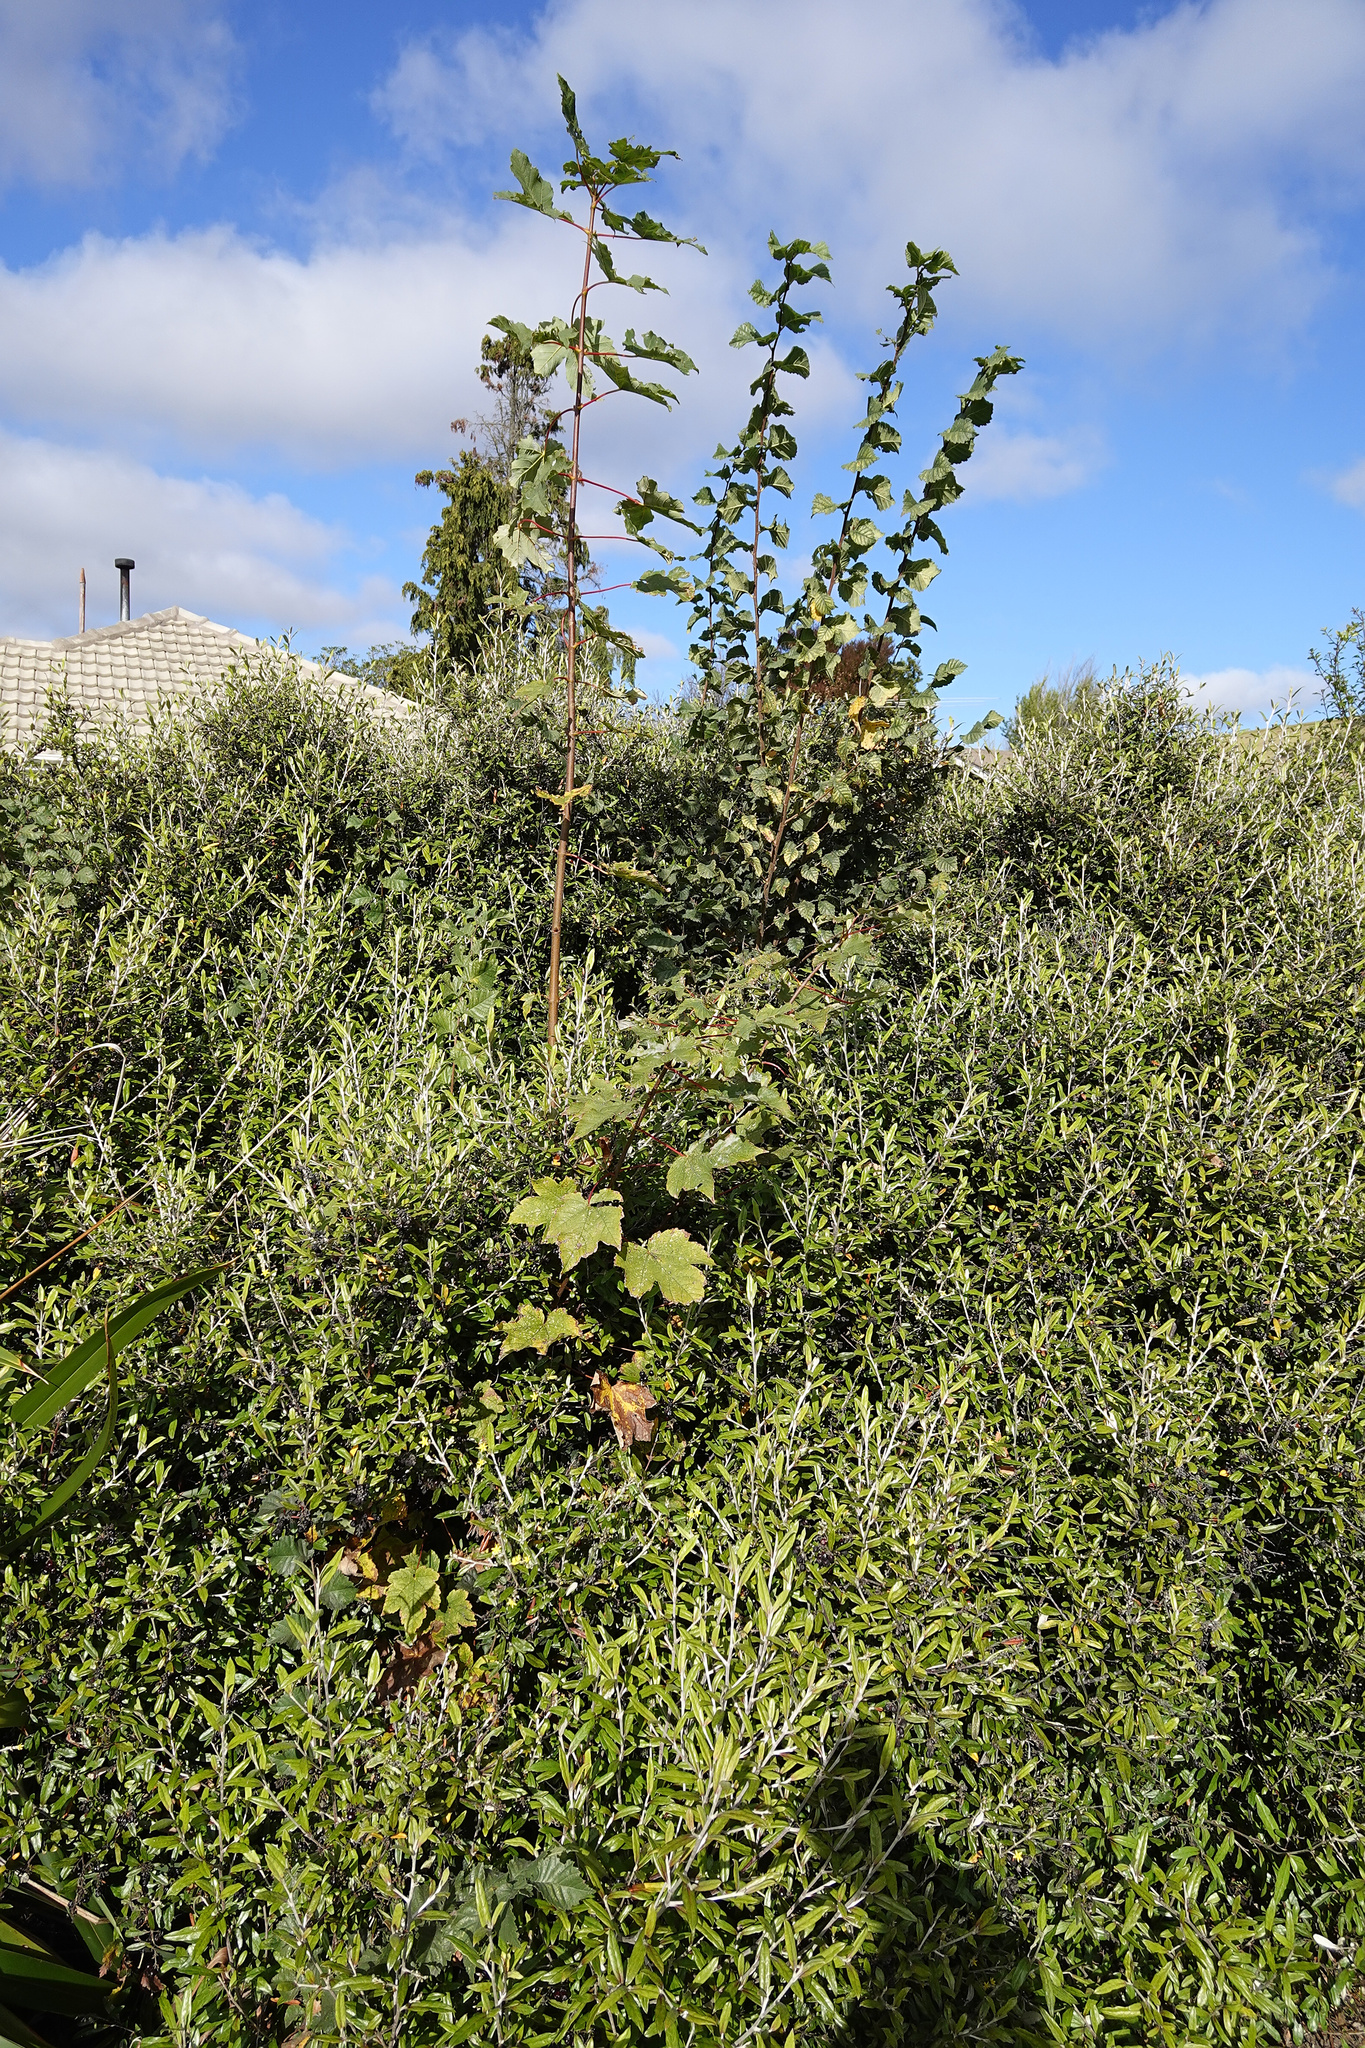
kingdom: Plantae
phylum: Tracheophyta
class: Magnoliopsida
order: Sapindales
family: Sapindaceae
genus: Acer
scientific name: Acer pseudoplatanus
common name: Sycamore
